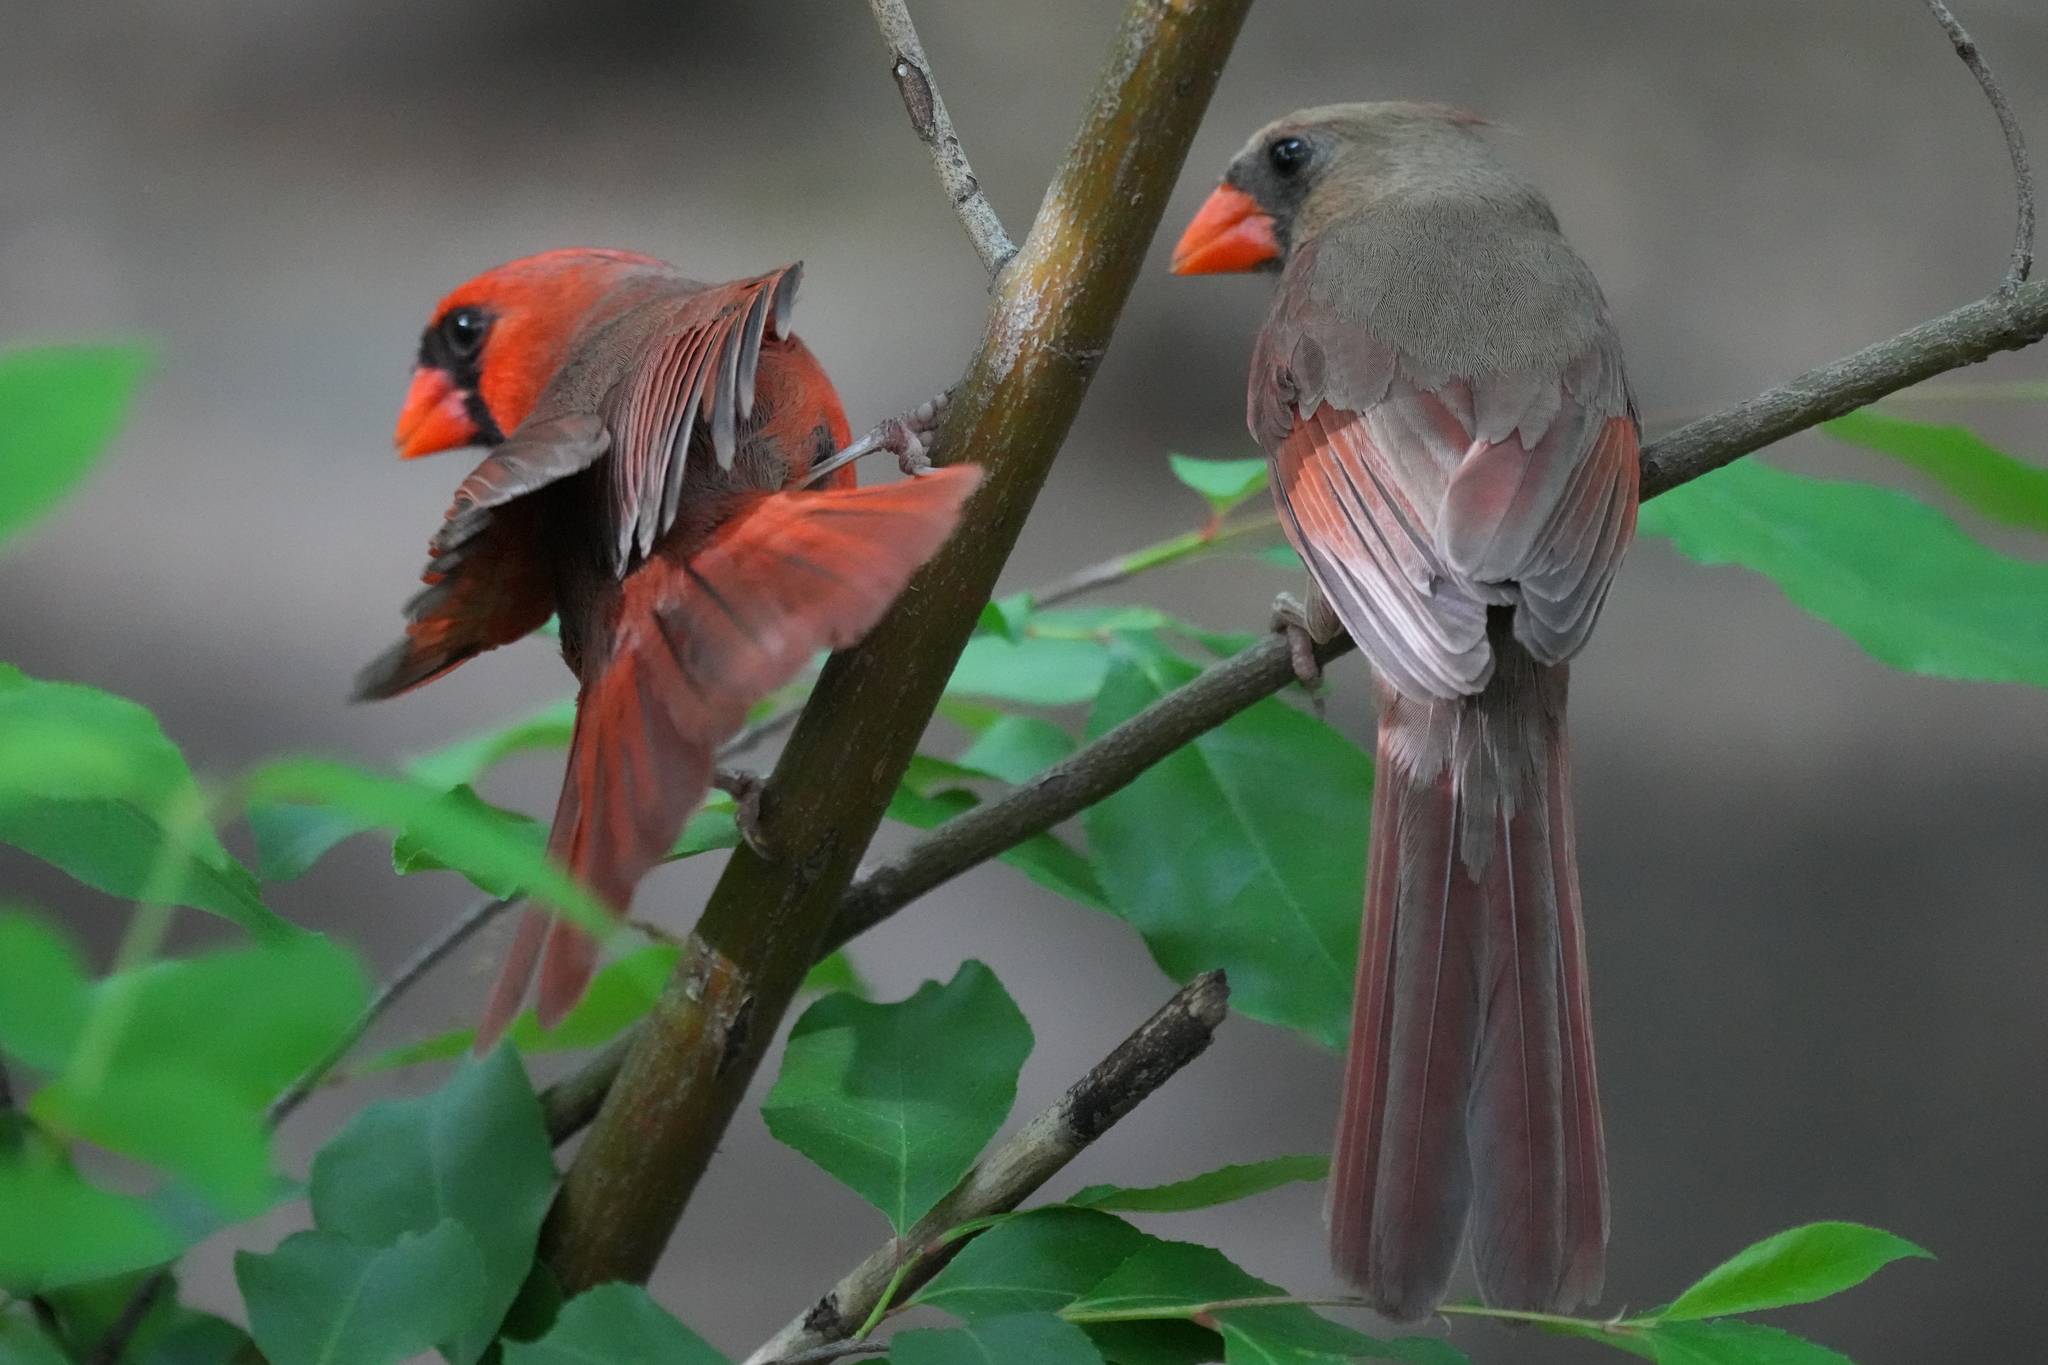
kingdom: Animalia
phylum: Chordata
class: Aves
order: Passeriformes
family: Cardinalidae
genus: Cardinalis
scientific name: Cardinalis cardinalis
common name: Northern cardinal
